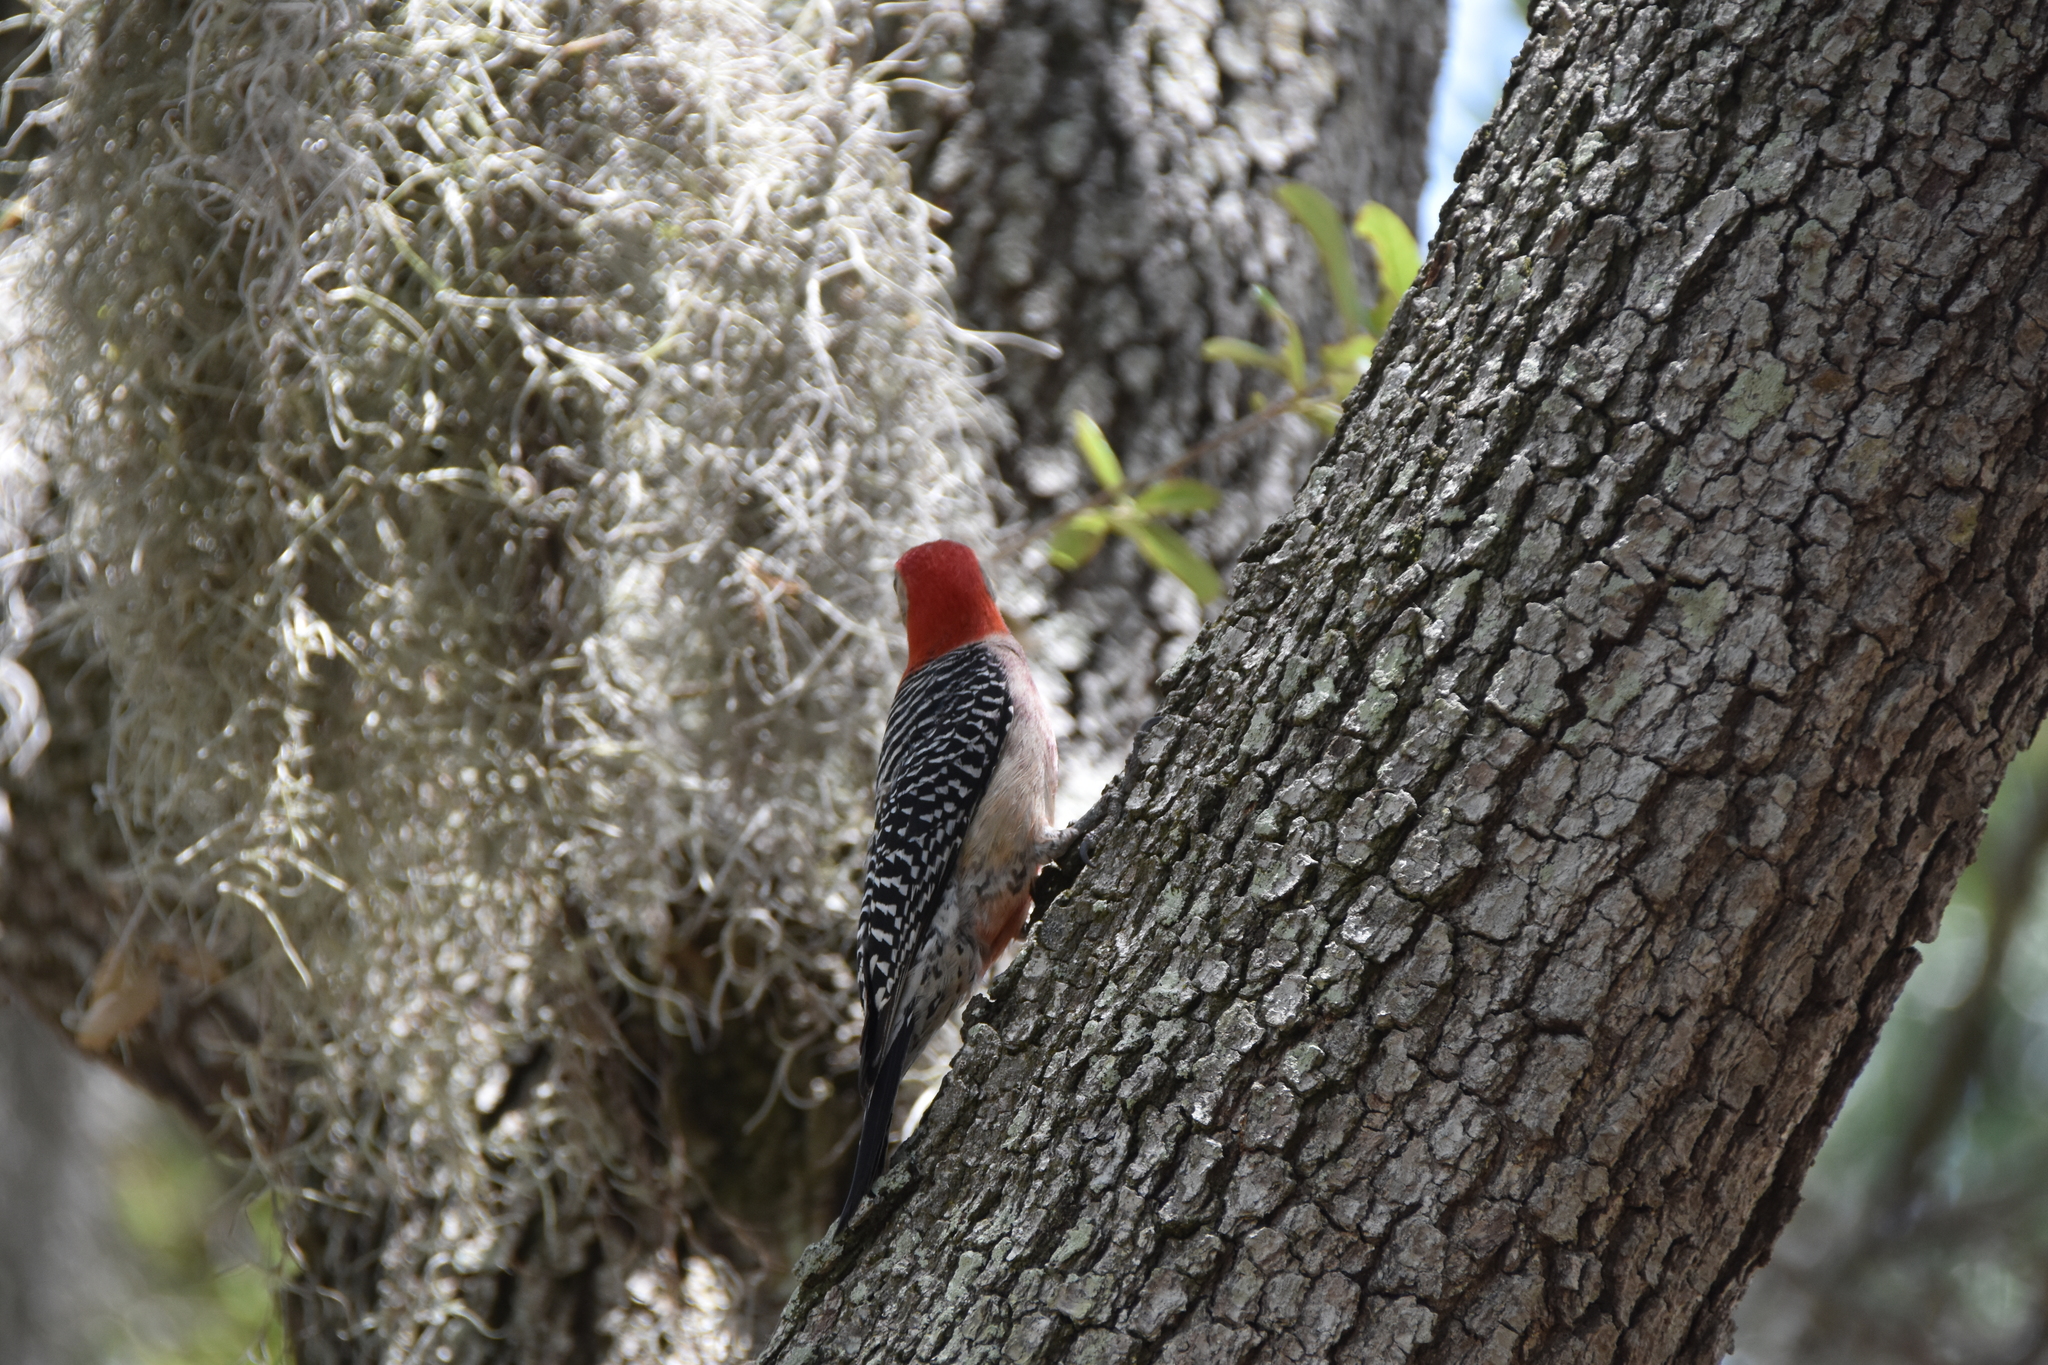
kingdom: Animalia
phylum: Chordata
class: Aves
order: Piciformes
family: Picidae
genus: Melanerpes
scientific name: Melanerpes carolinus
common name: Red-bellied woodpecker
